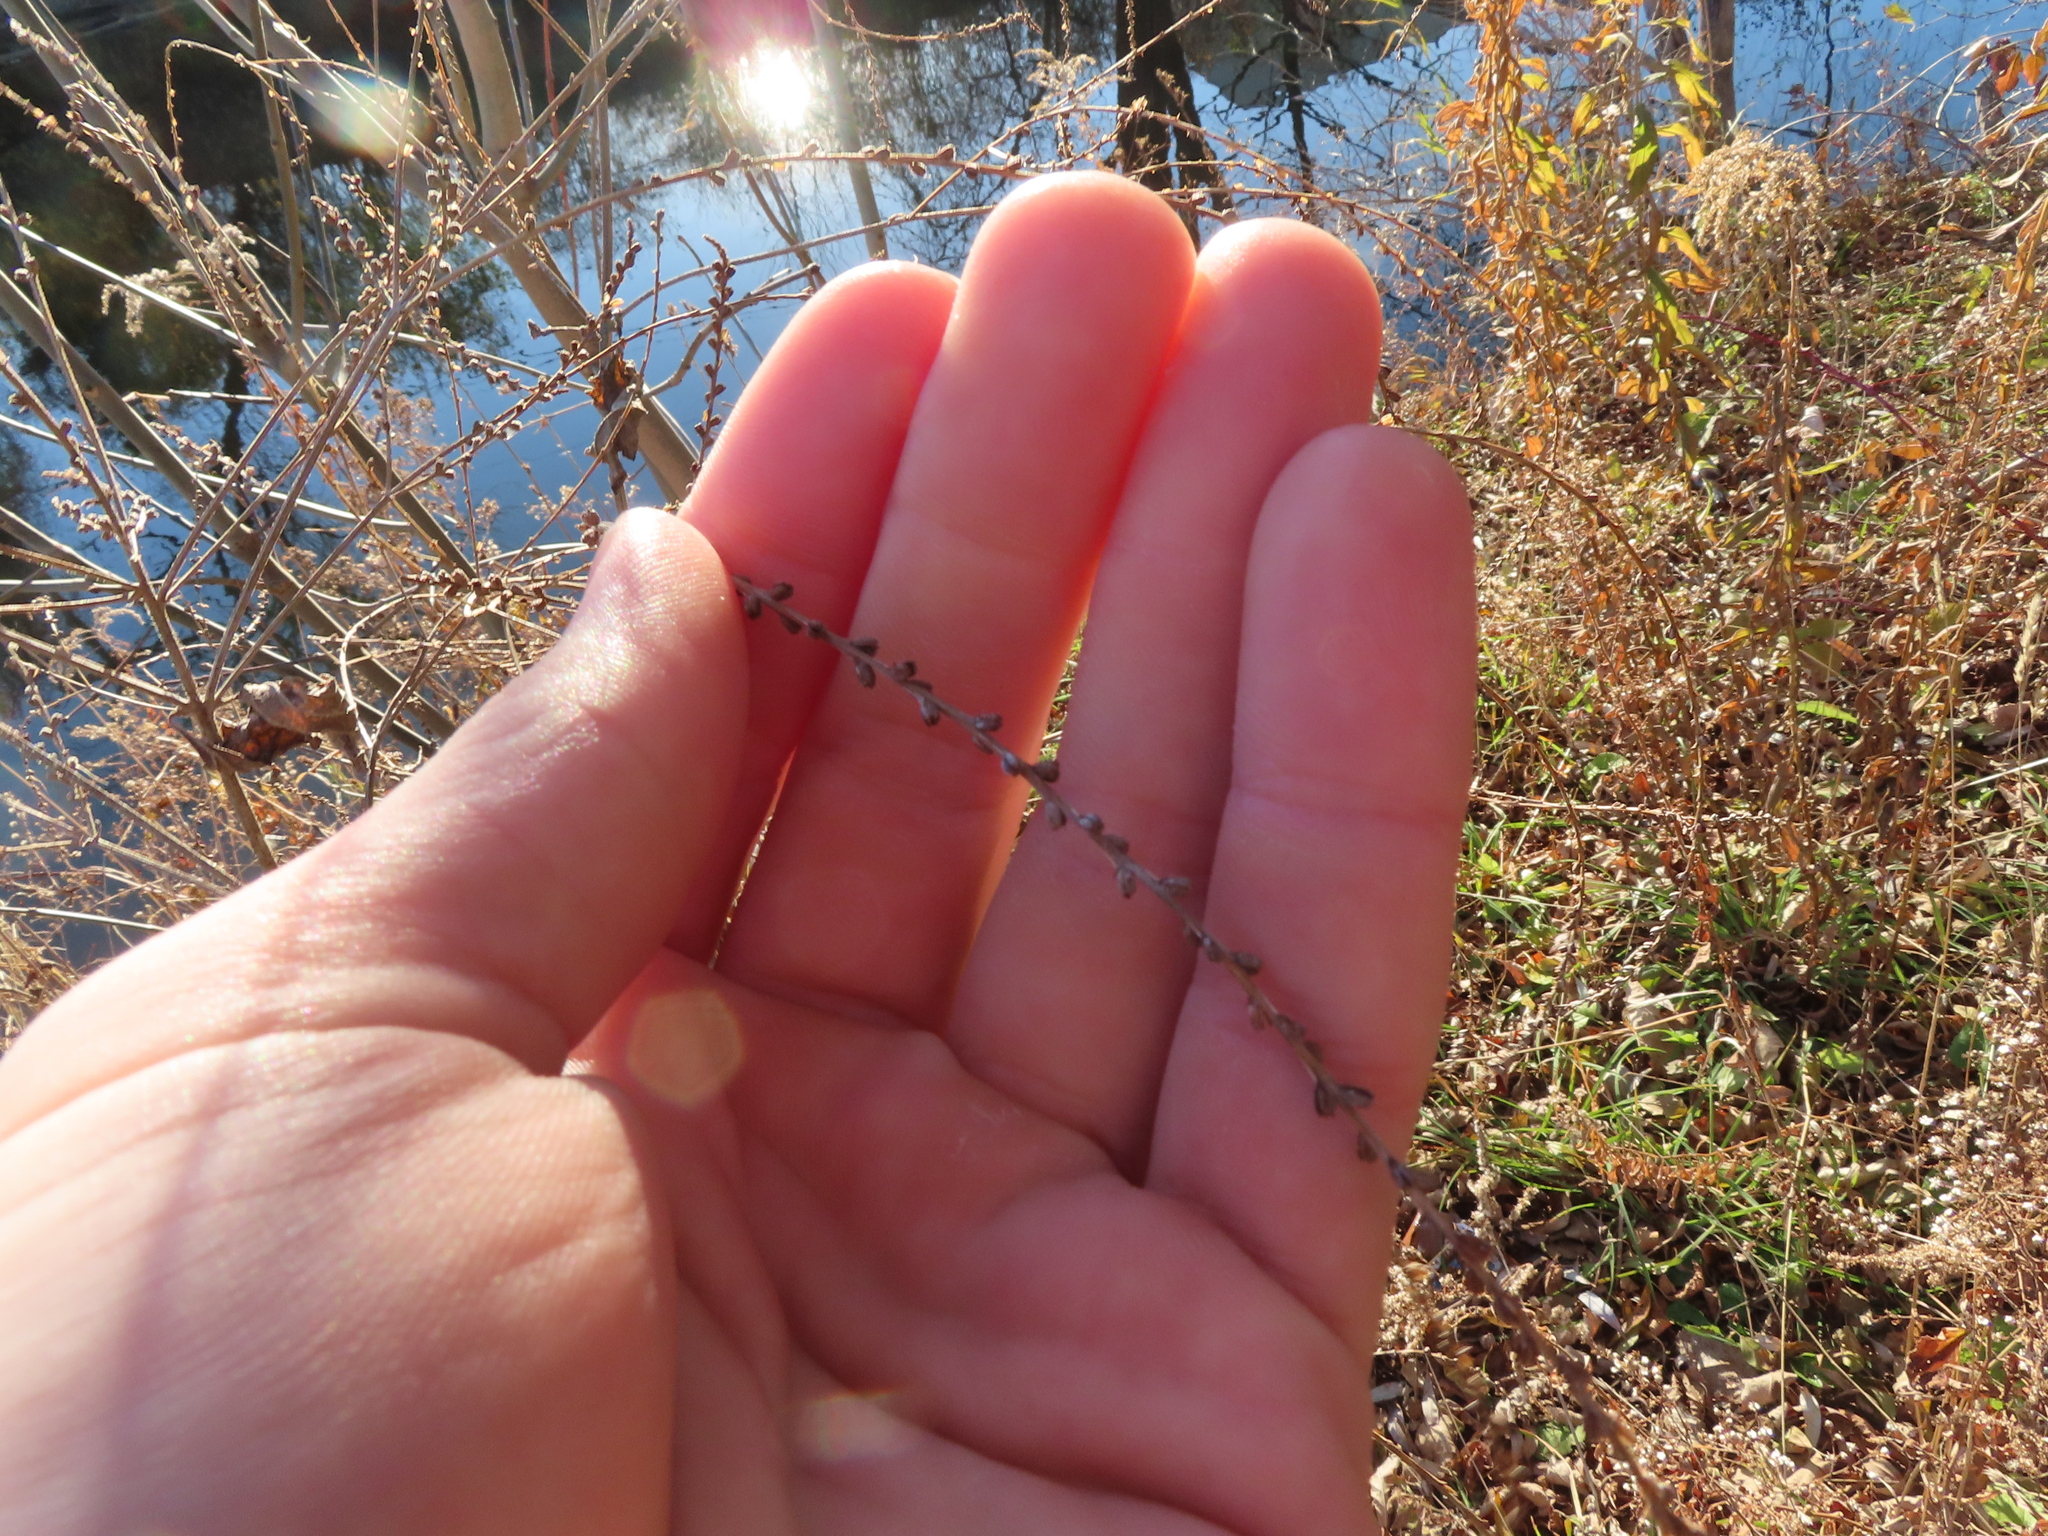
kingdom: Plantae
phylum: Tracheophyta
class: Magnoliopsida
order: Lamiales
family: Verbenaceae
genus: Verbena
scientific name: Verbena urticifolia
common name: Nettle-leaved vervain
